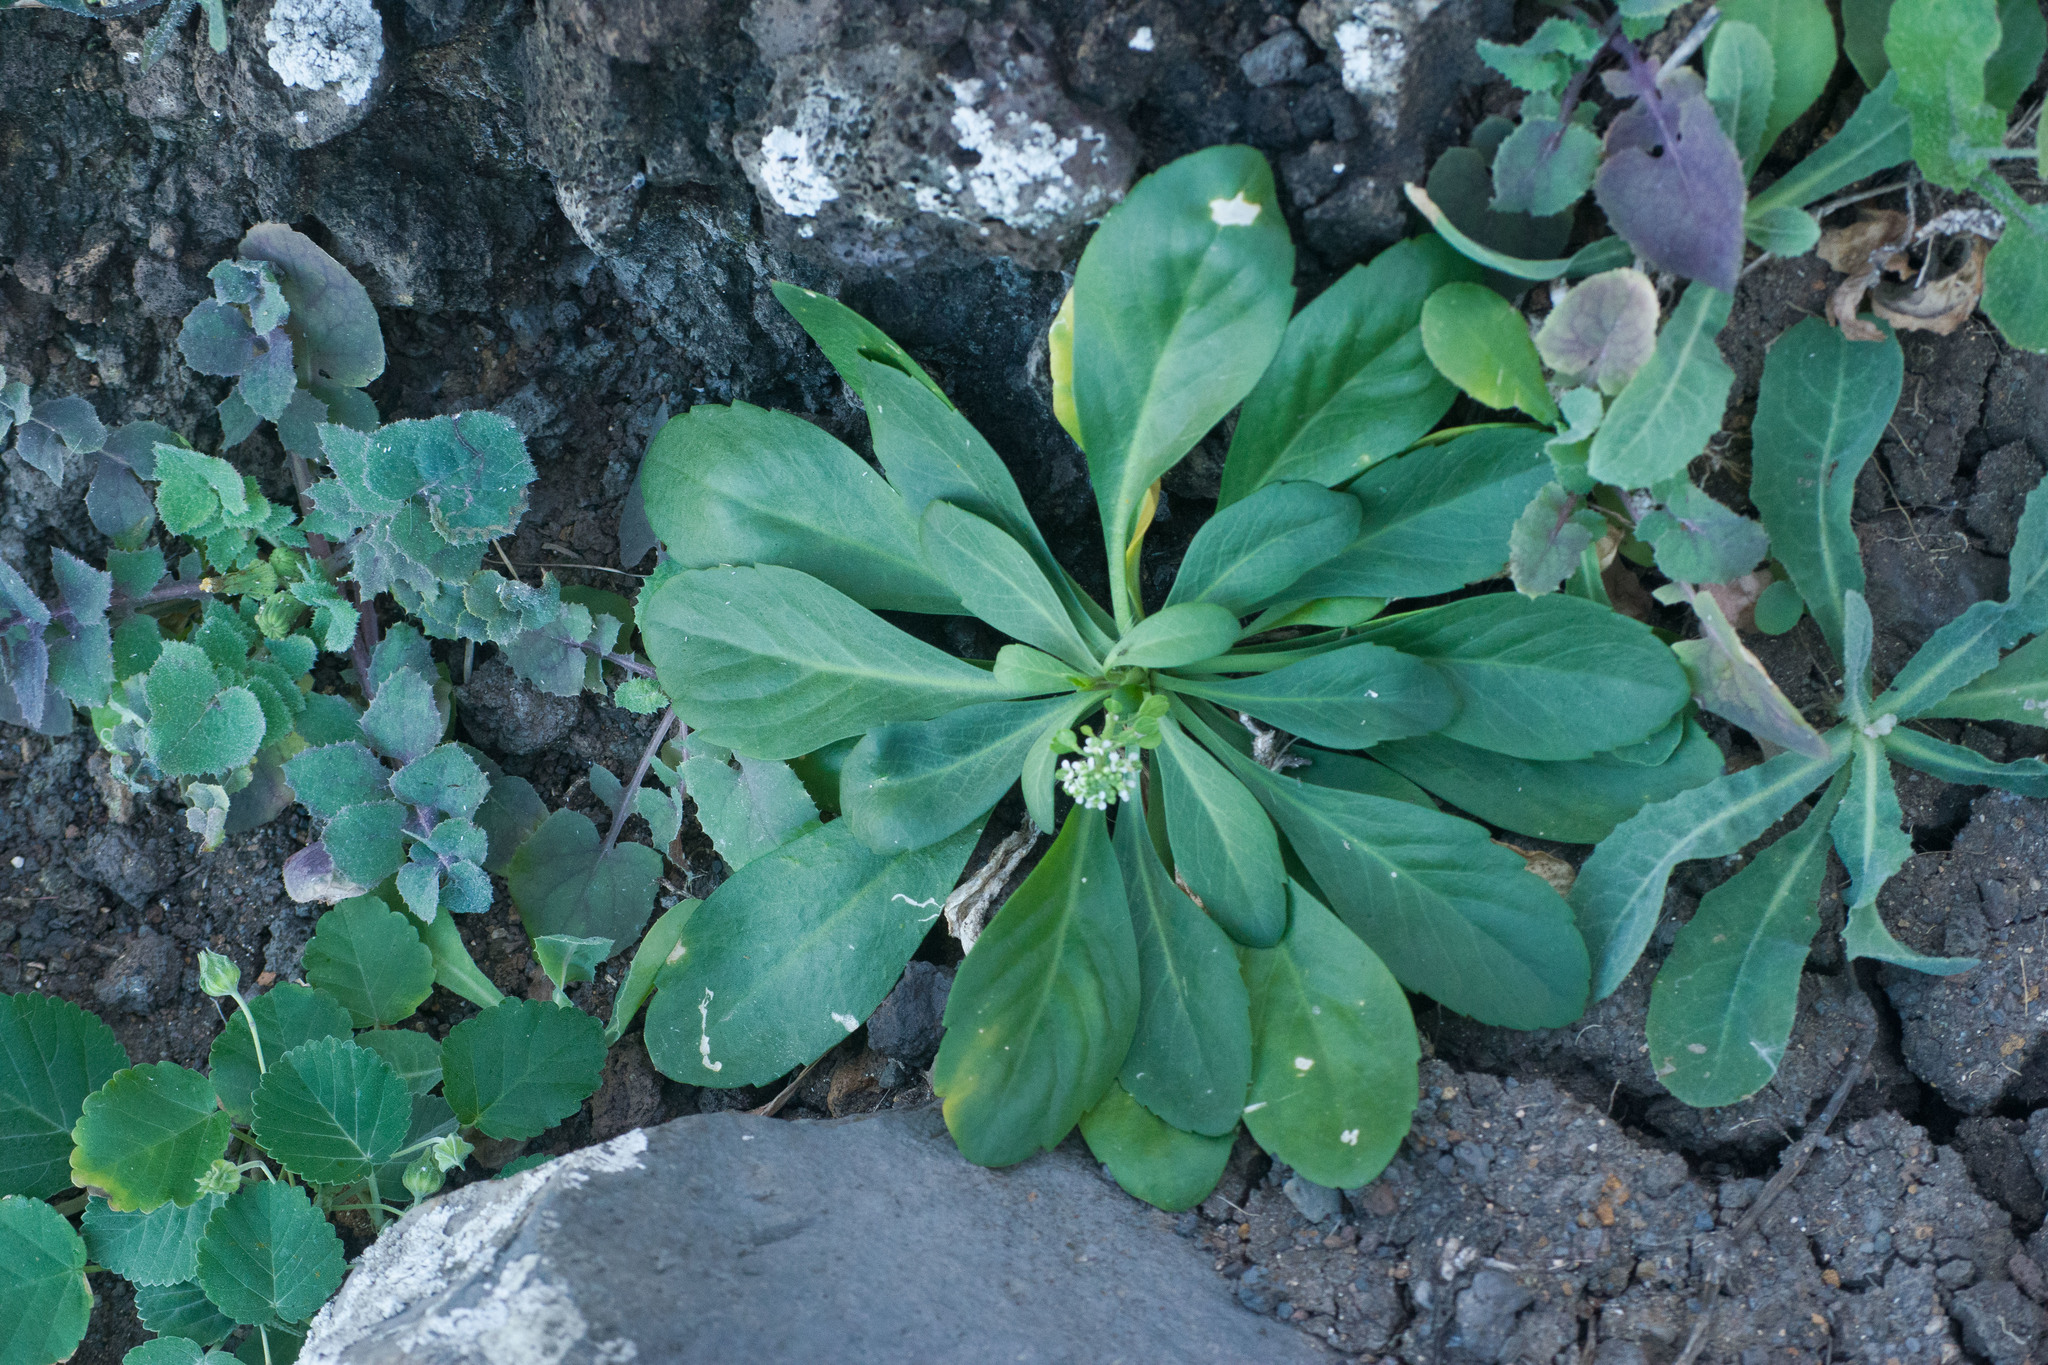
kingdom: Plantae
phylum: Tracheophyta
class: Magnoliopsida
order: Brassicales
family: Brassicaceae
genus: Lepidium
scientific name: Lepidium owaihiense
